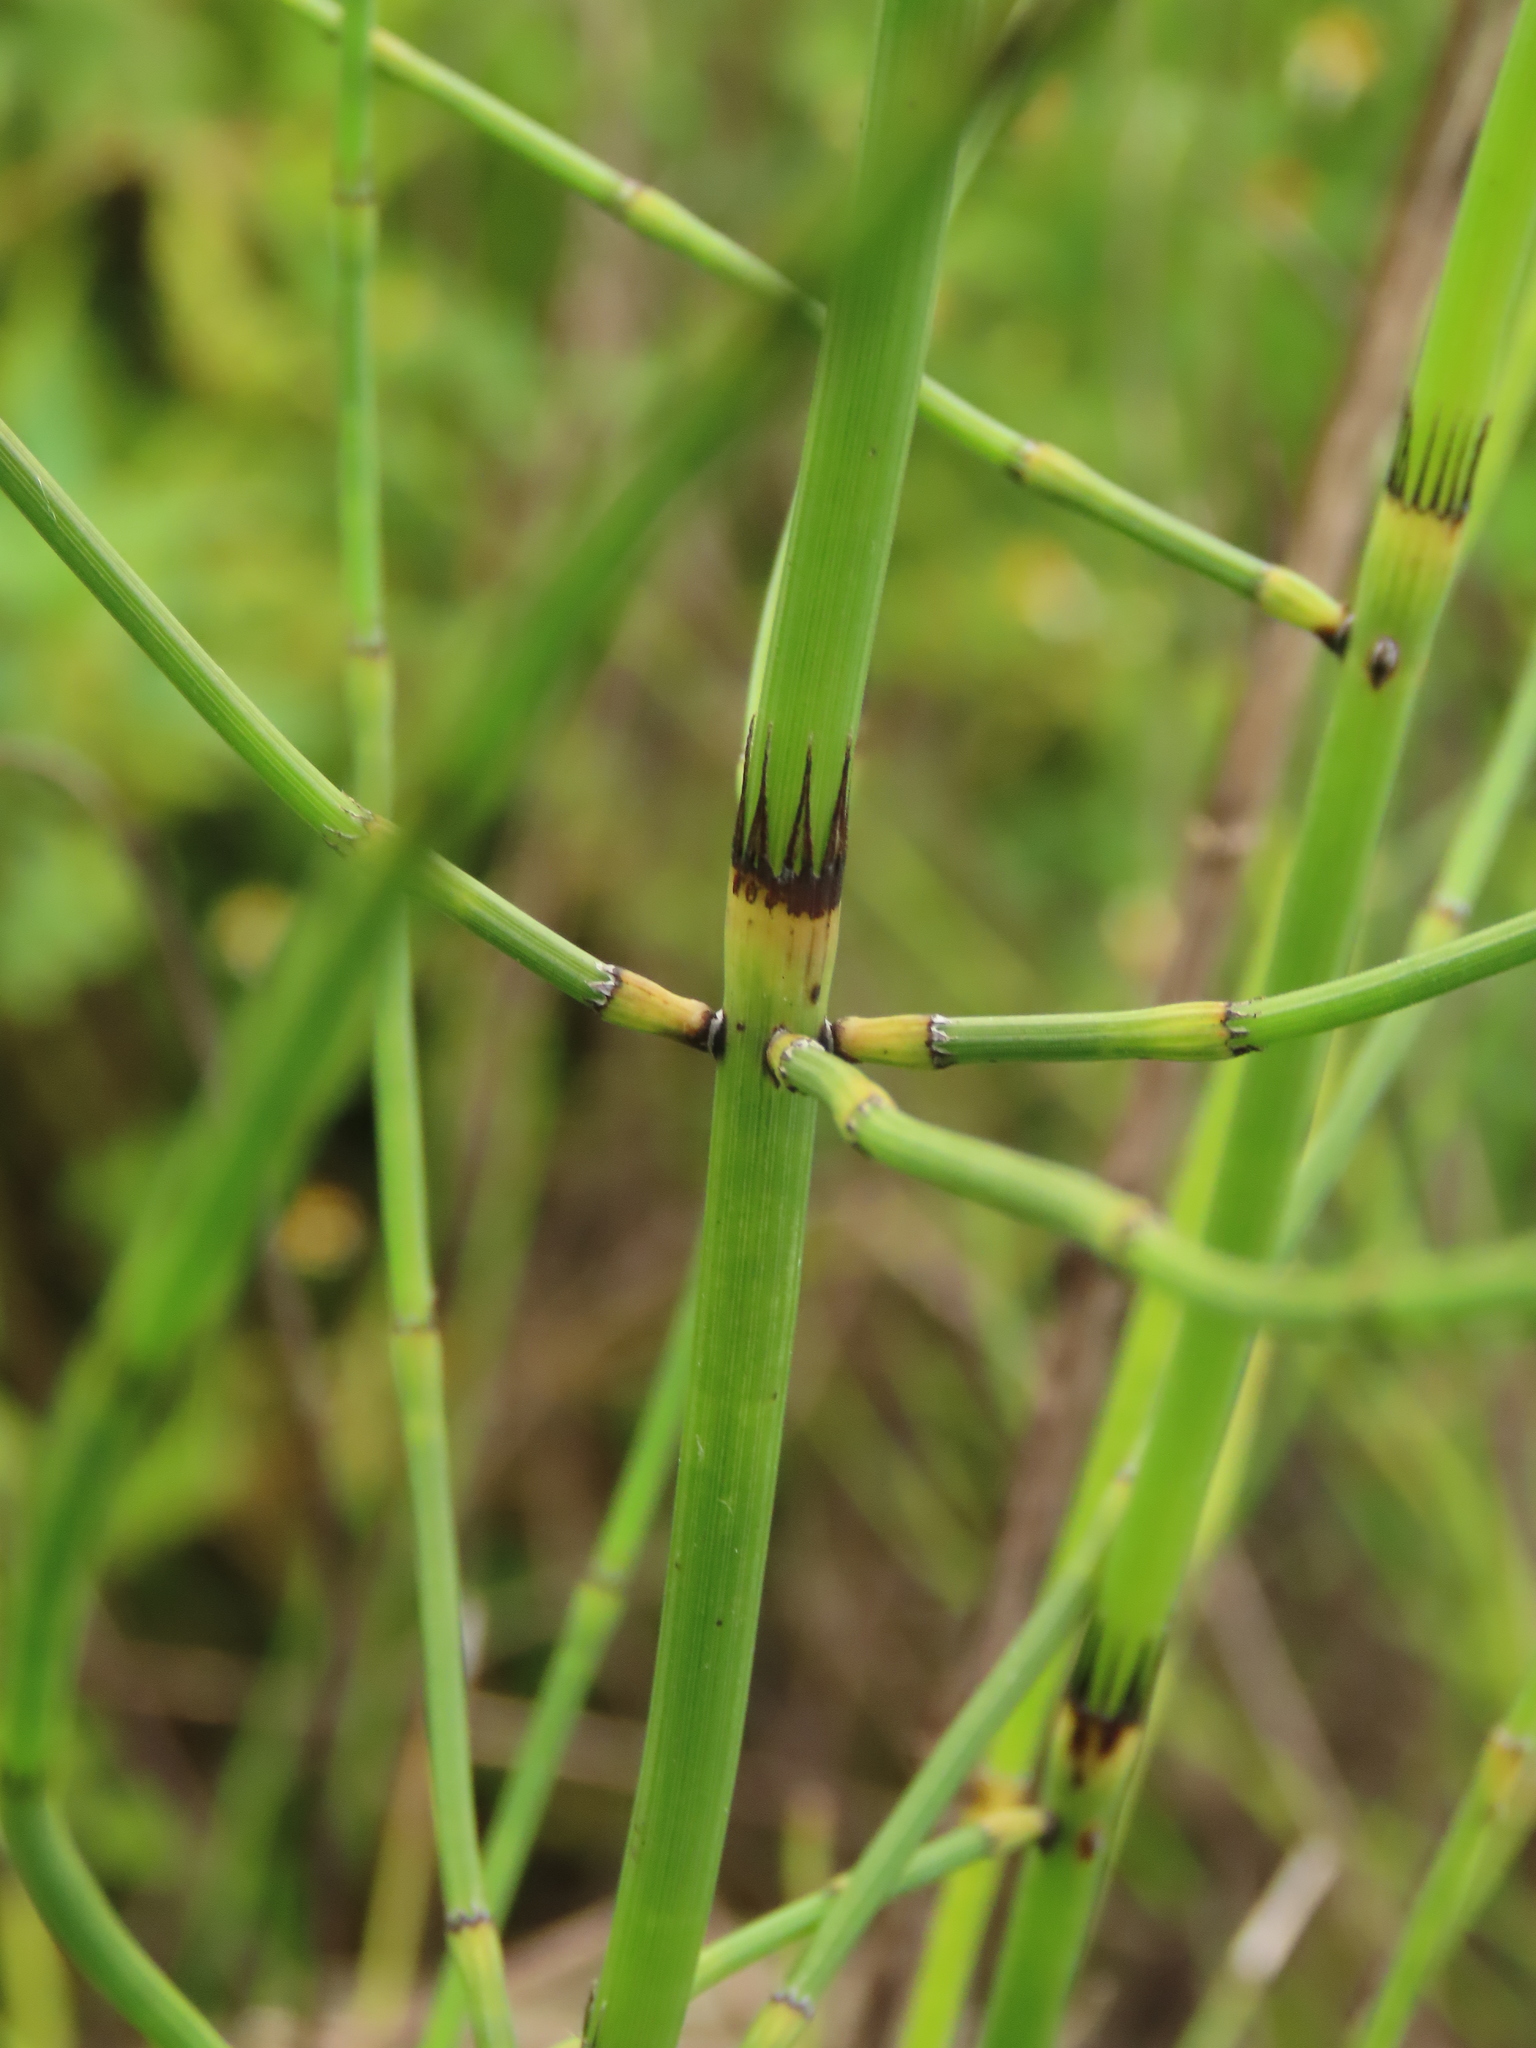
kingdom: Plantae
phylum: Tracheophyta
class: Polypodiopsida
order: Equisetales
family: Equisetaceae
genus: Equisetum
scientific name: Equisetum ramosissimum
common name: Branched horsetail
